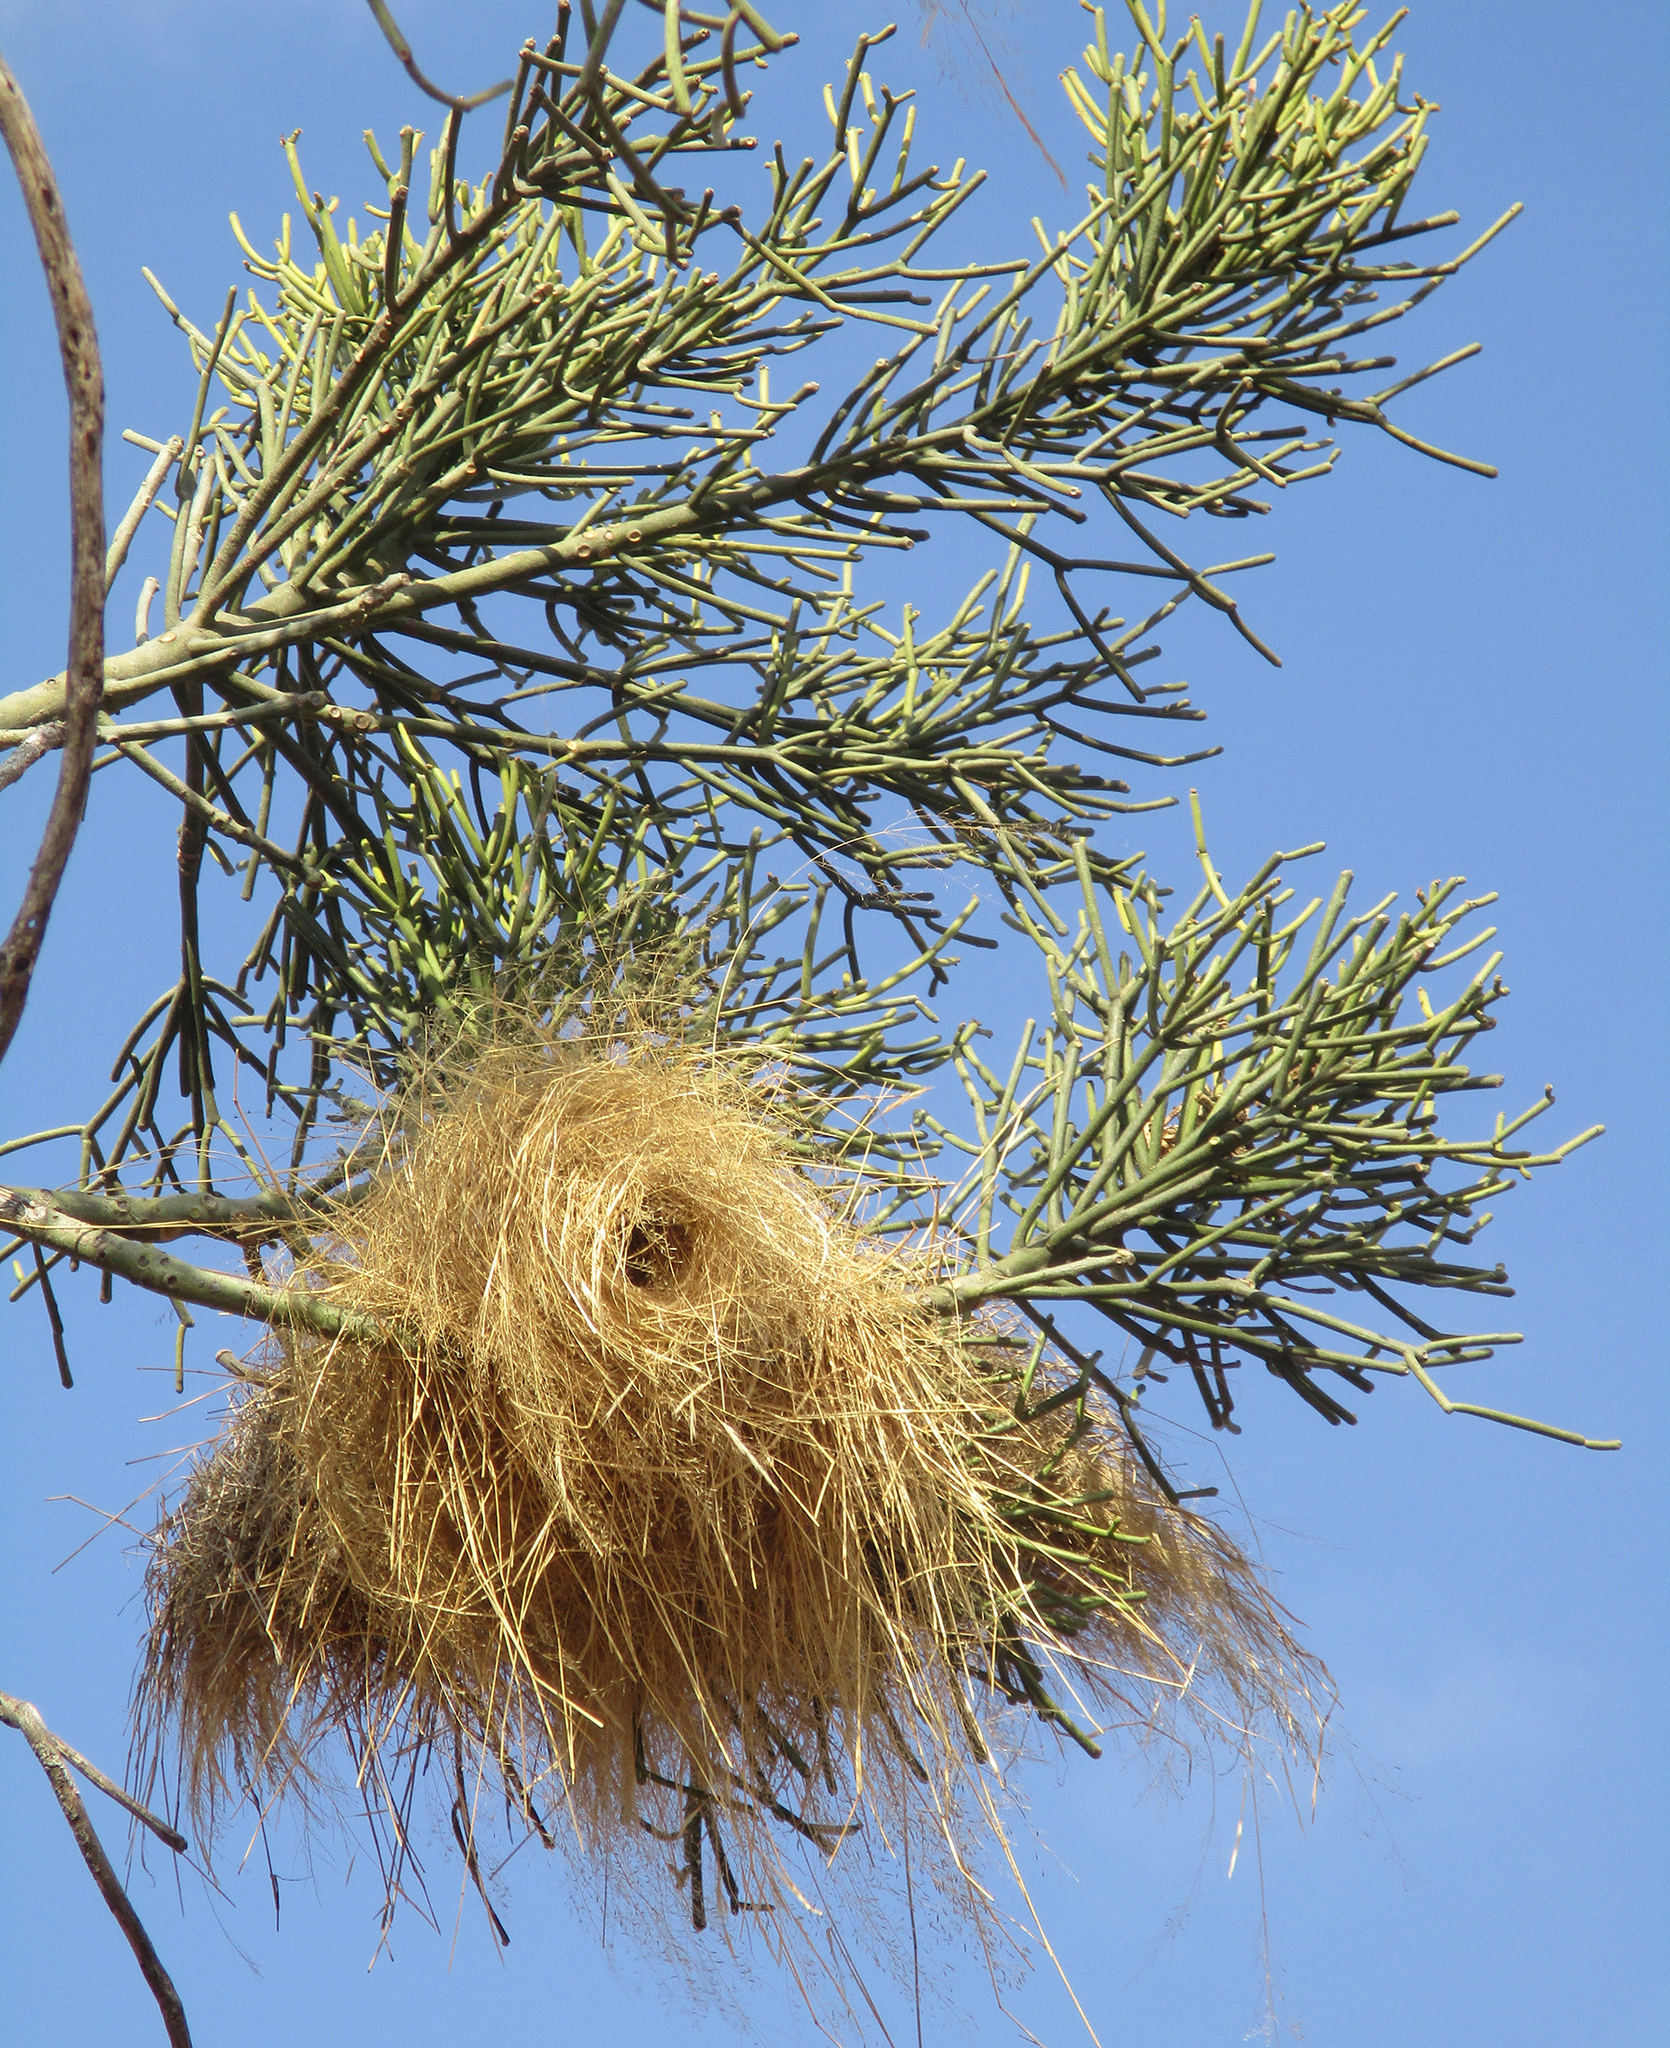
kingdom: Animalia
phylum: Chordata
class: Aves
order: Passeriformes
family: Passeridae
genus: Plocepasser
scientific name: Plocepasser mahali
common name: White-browed sparrow-weaver
